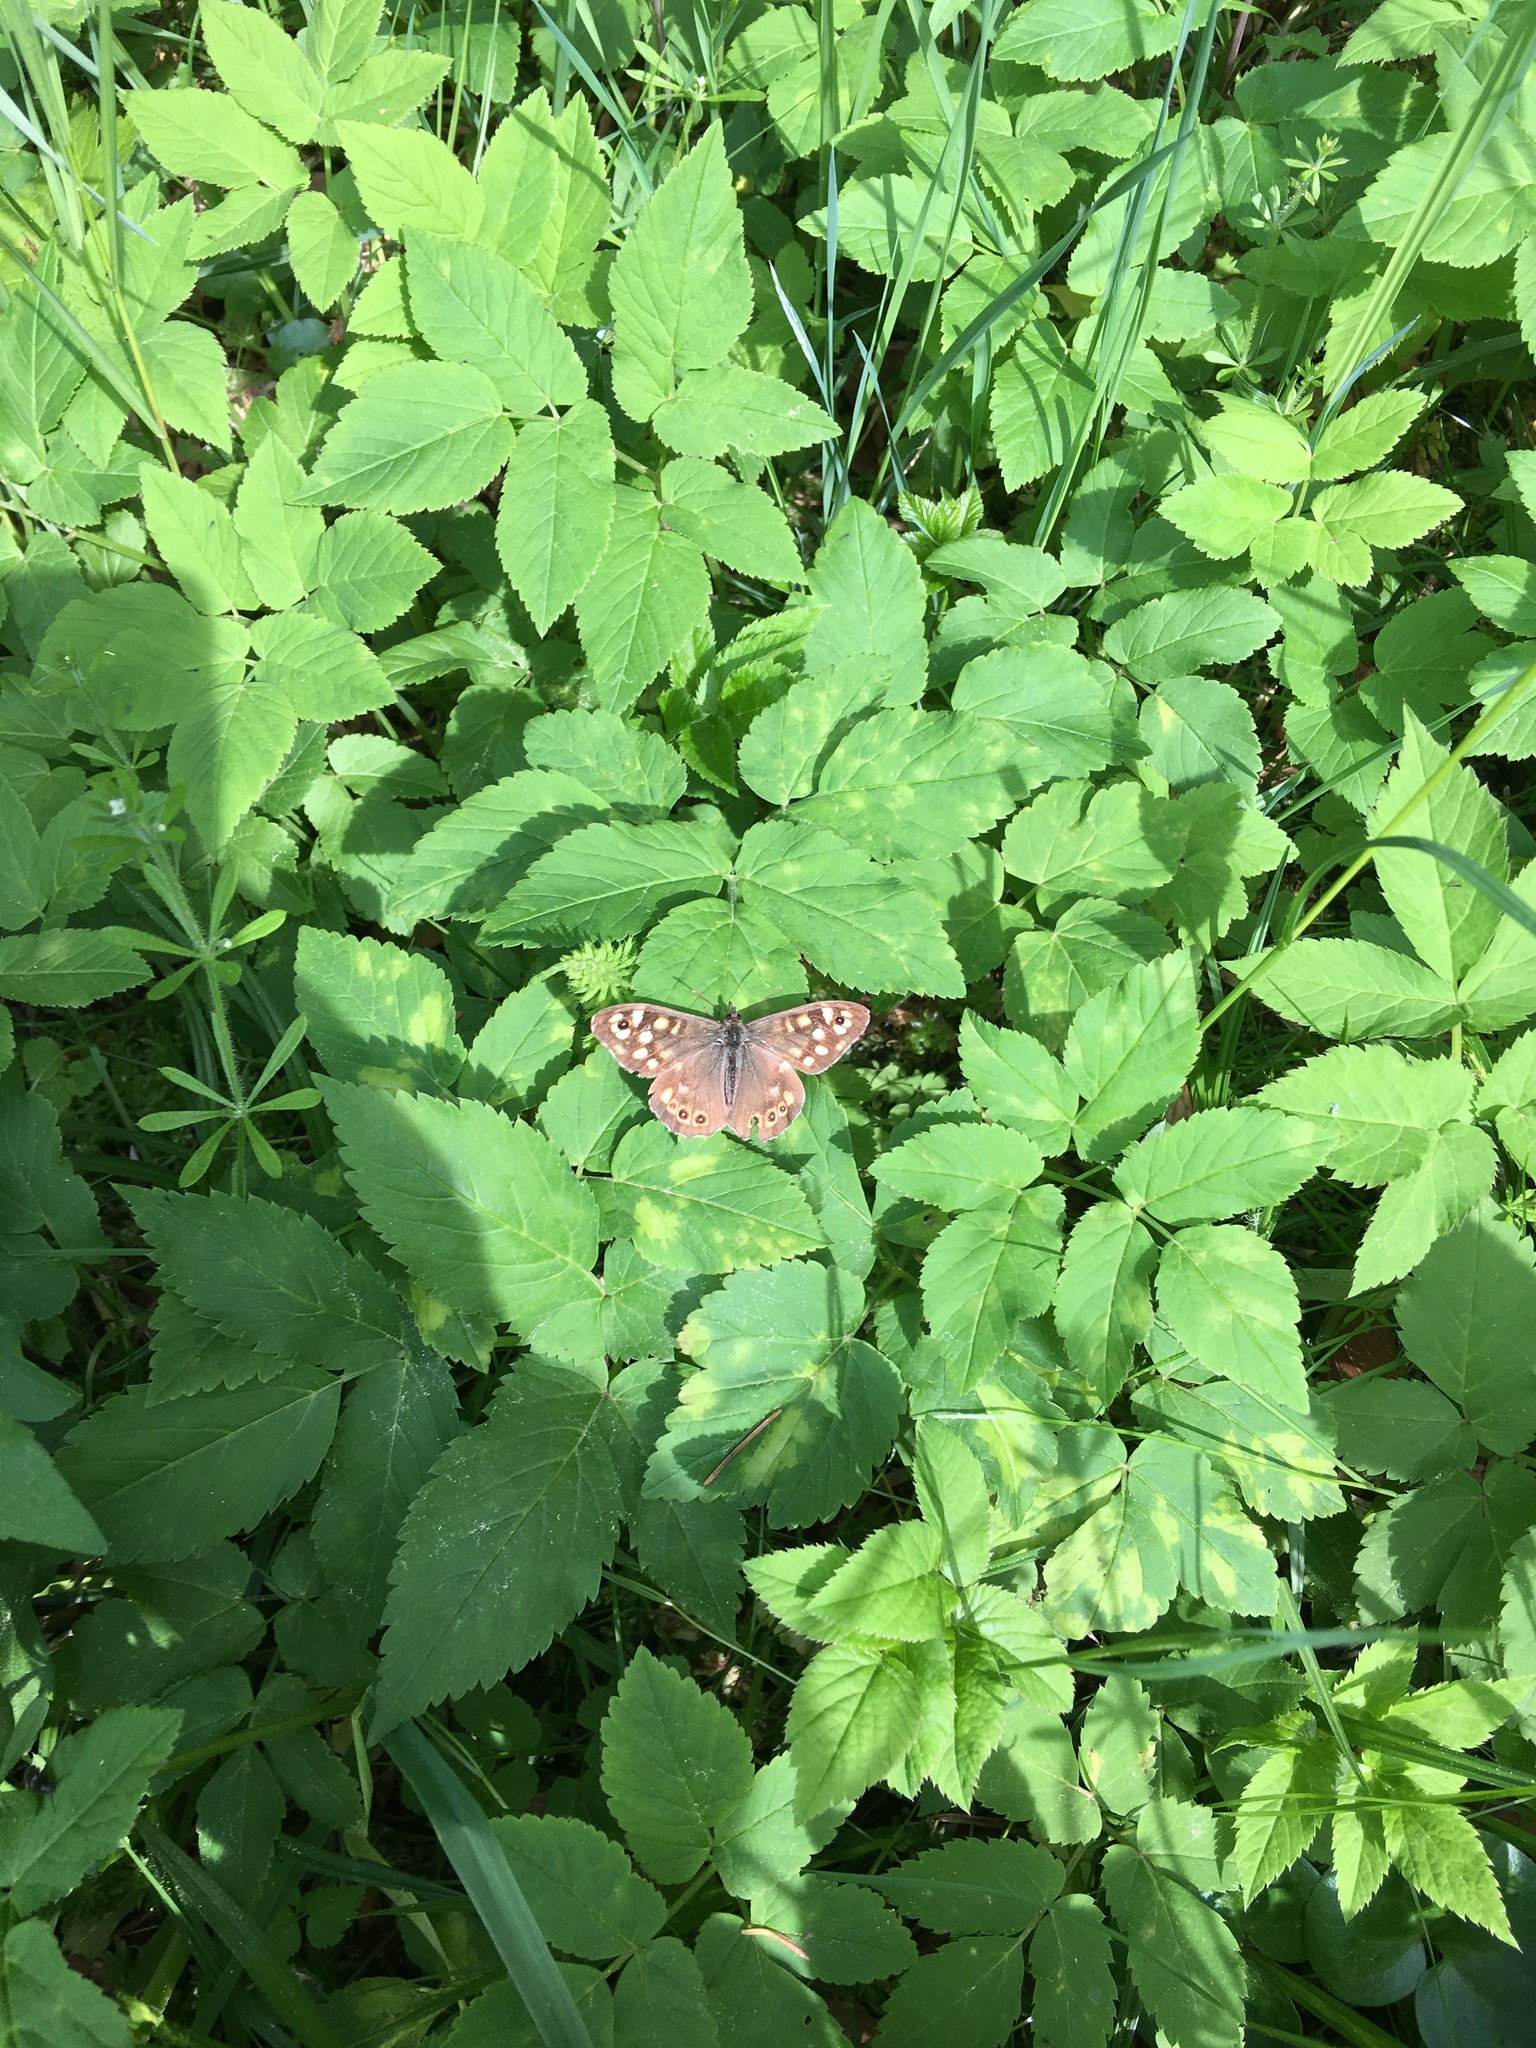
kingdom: Animalia
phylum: Arthropoda
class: Insecta
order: Lepidoptera
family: Nymphalidae
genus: Pararge
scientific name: Pararge aegeria
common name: Speckled wood
